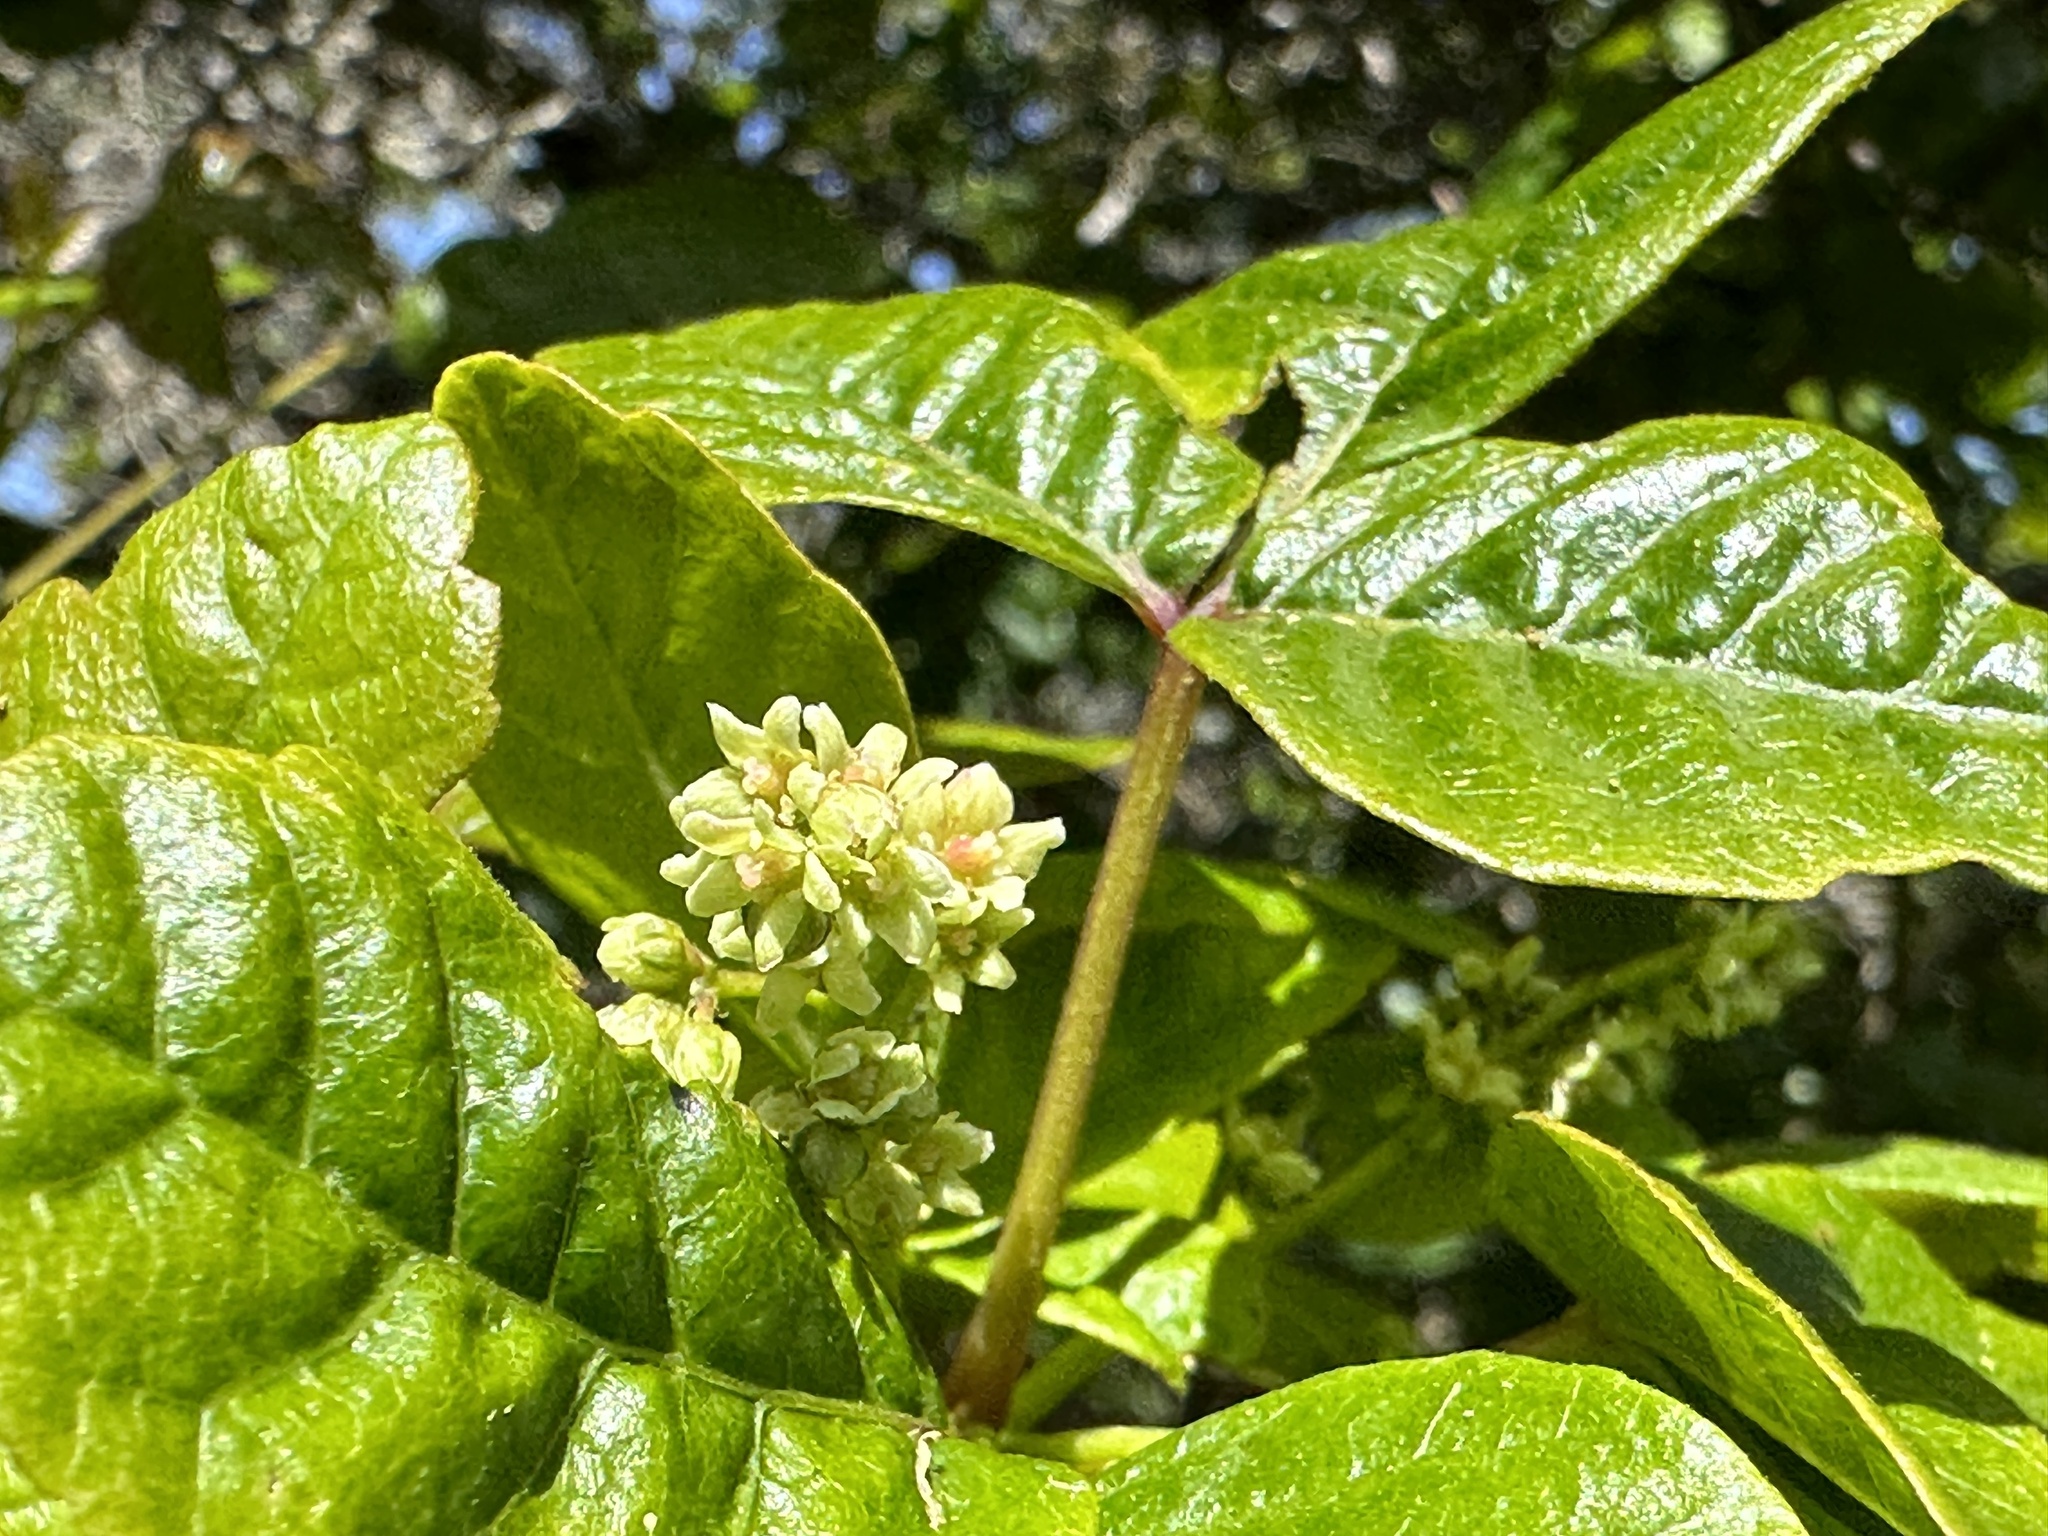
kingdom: Plantae
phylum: Tracheophyta
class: Magnoliopsida
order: Sapindales
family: Anacardiaceae
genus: Toxicodendron
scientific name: Toxicodendron diversilobum
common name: Pacific poison-oak
